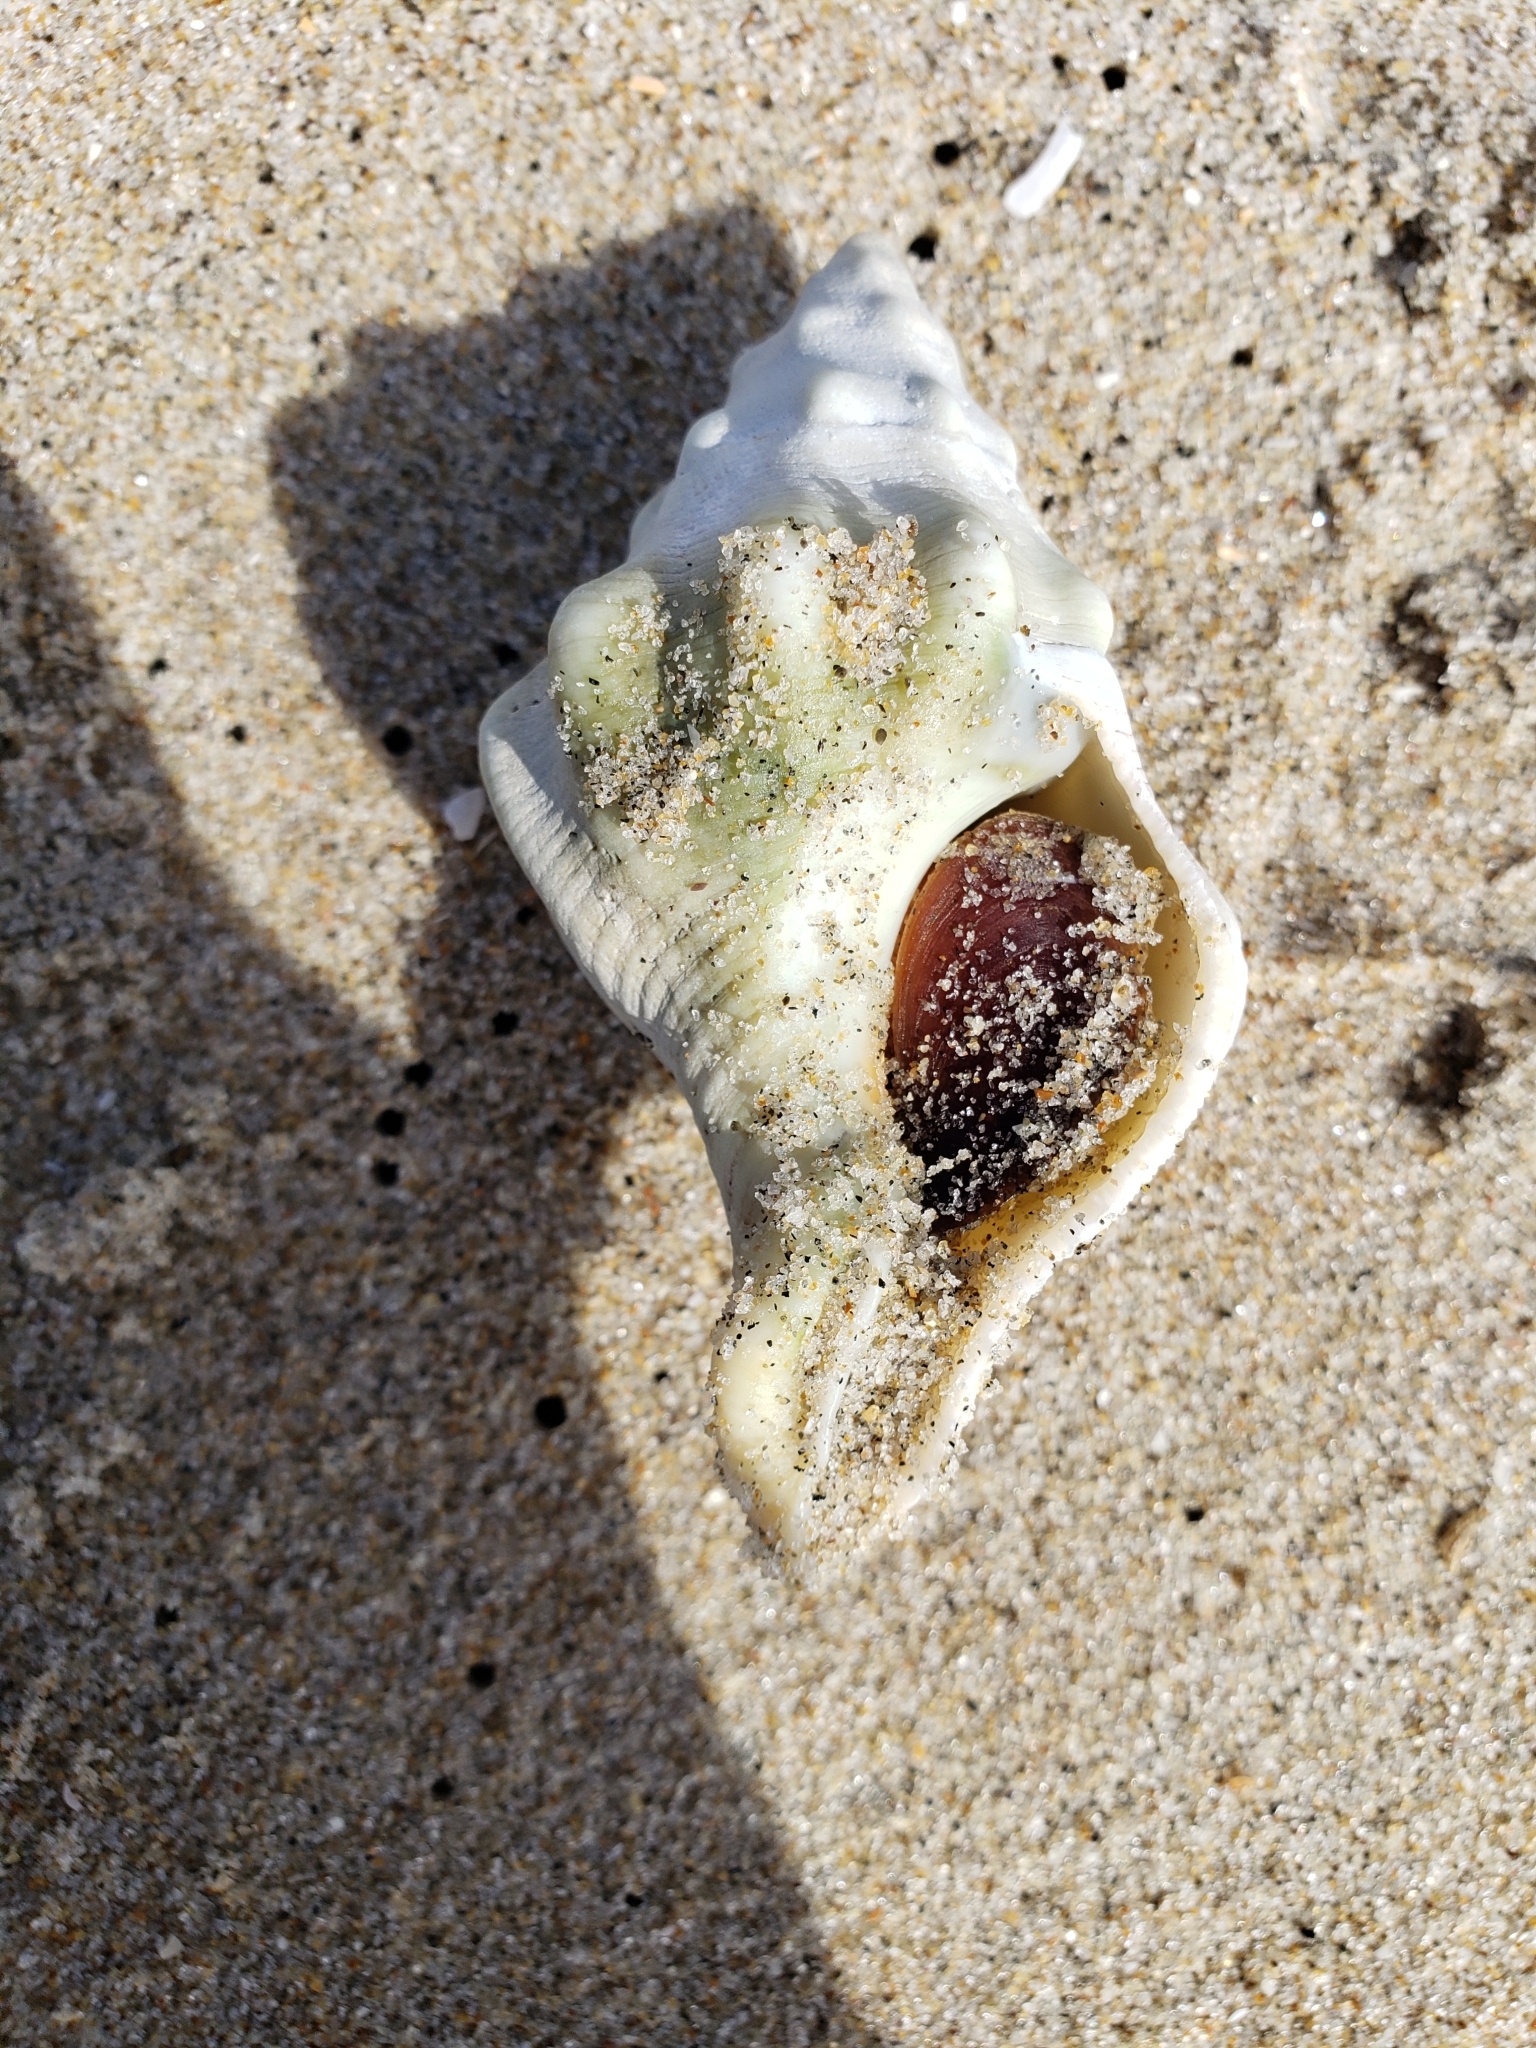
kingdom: Animalia
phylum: Mollusca
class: Gastropoda
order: Neogastropoda
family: Austrosiphonidae
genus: Kelletia
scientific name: Kelletia kelletii
